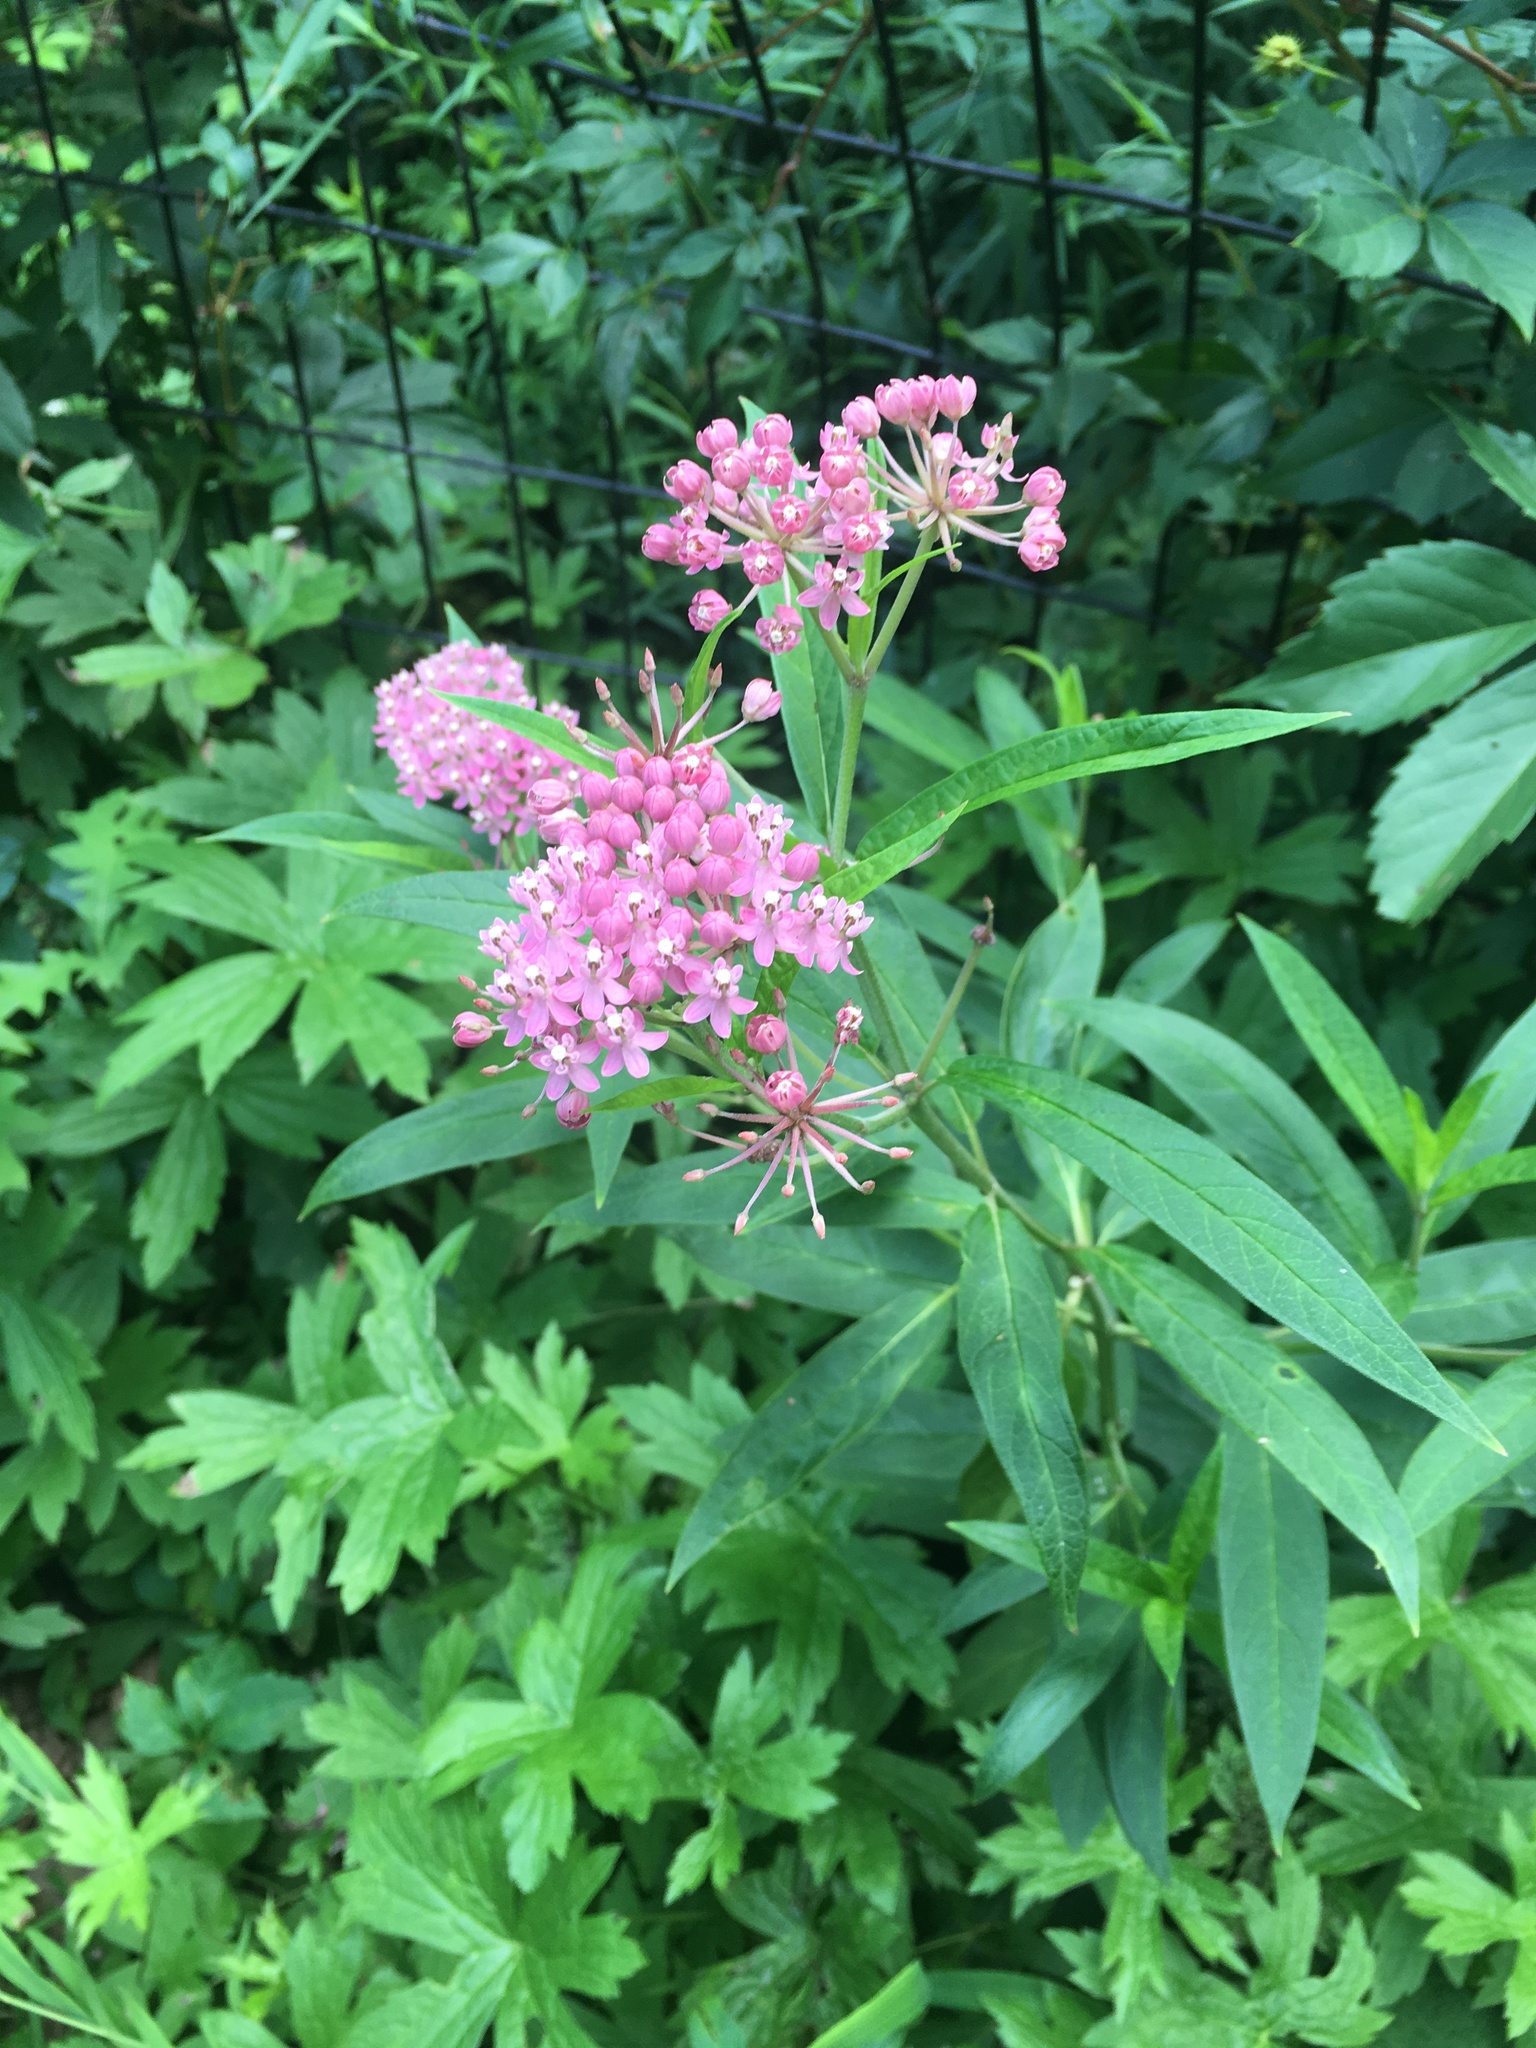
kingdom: Plantae
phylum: Tracheophyta
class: Magnoliopsida
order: Gentianales
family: Apocynaceae
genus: Asclepias
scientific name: Asclepias incarnata
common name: Swamp milkweed
